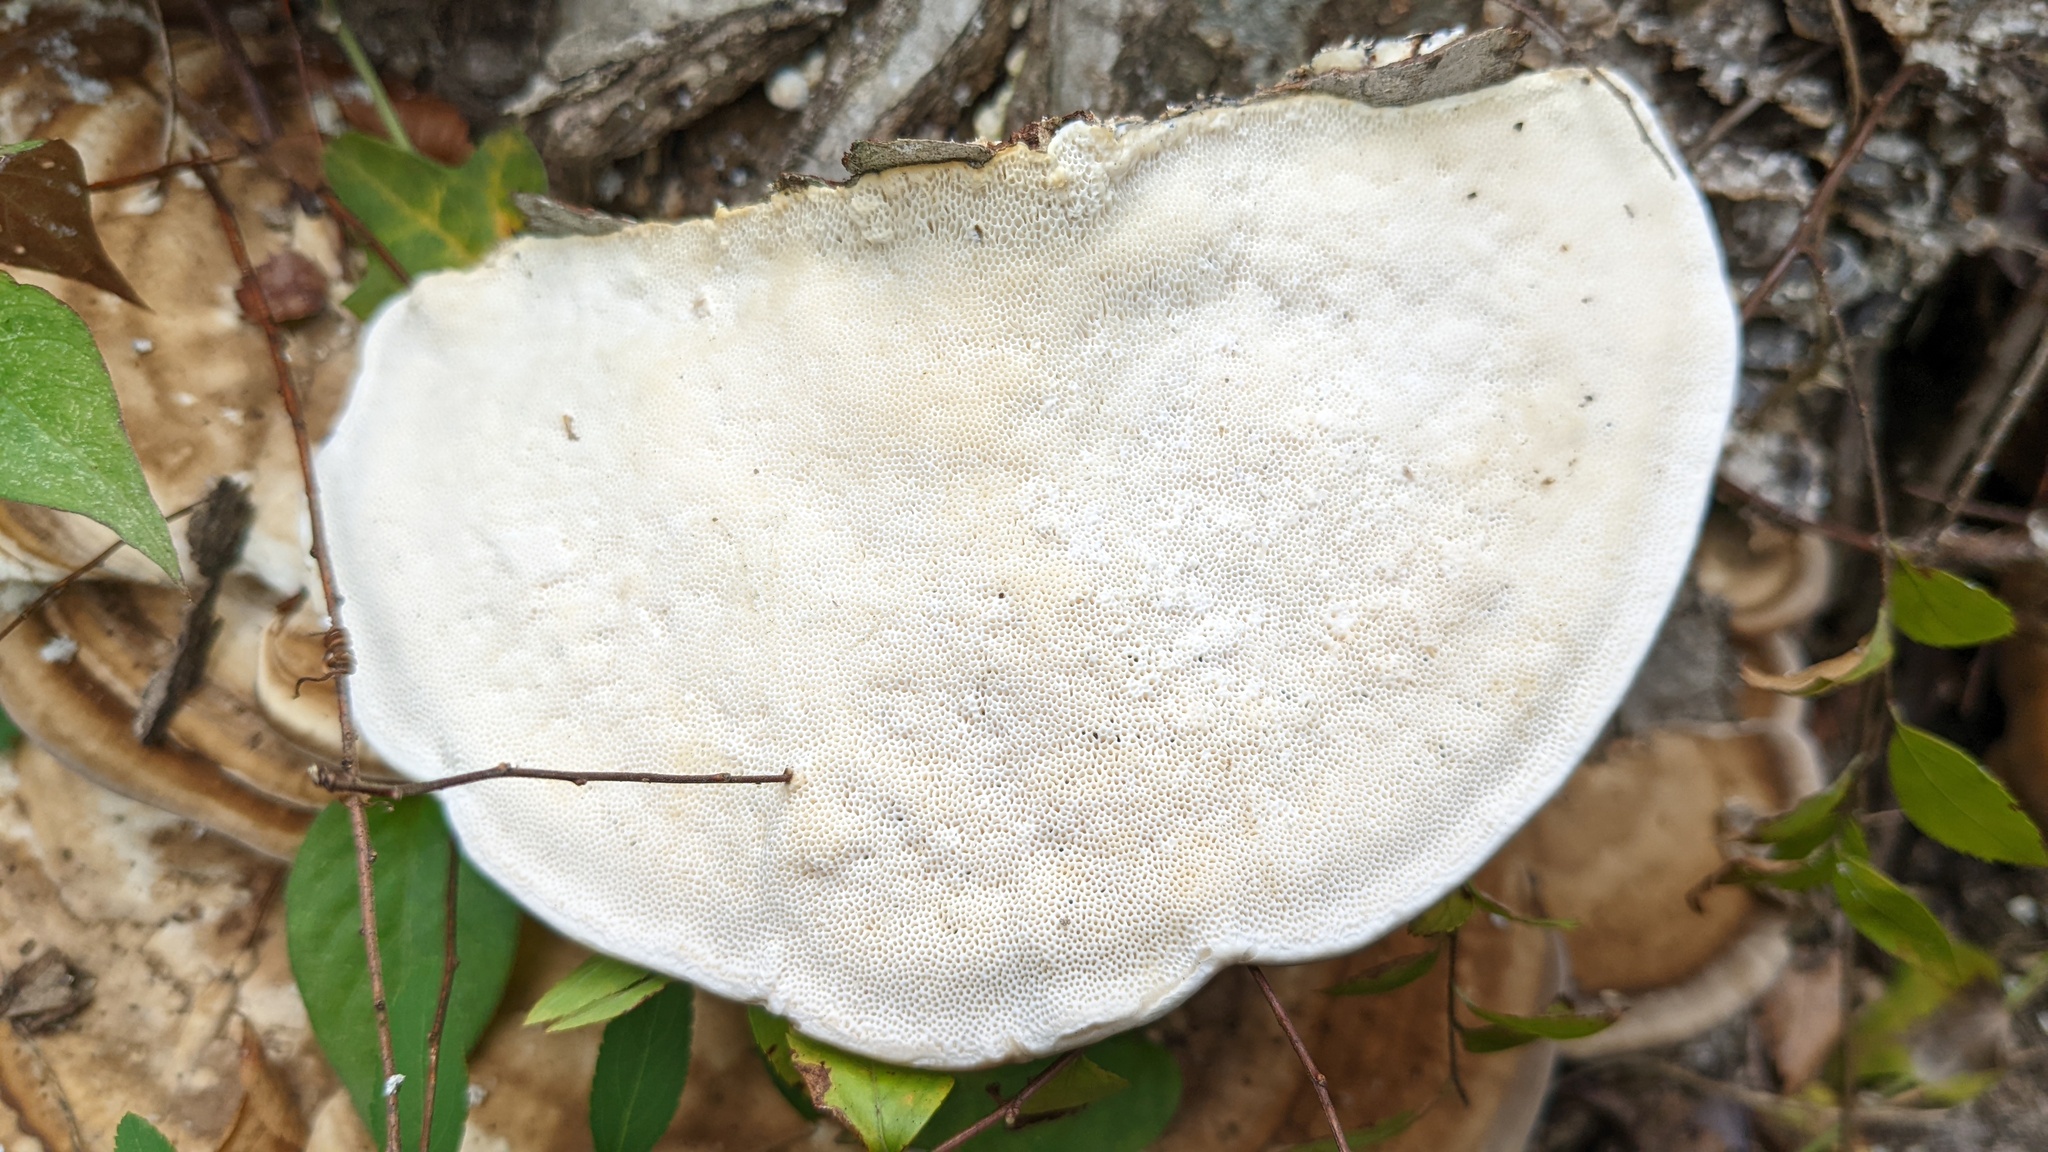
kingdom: Fungi
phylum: Basidiomycota
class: Agaricomycetes
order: Polyporales
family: Polyporaceae
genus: Trametes
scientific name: Trametes orientalis
